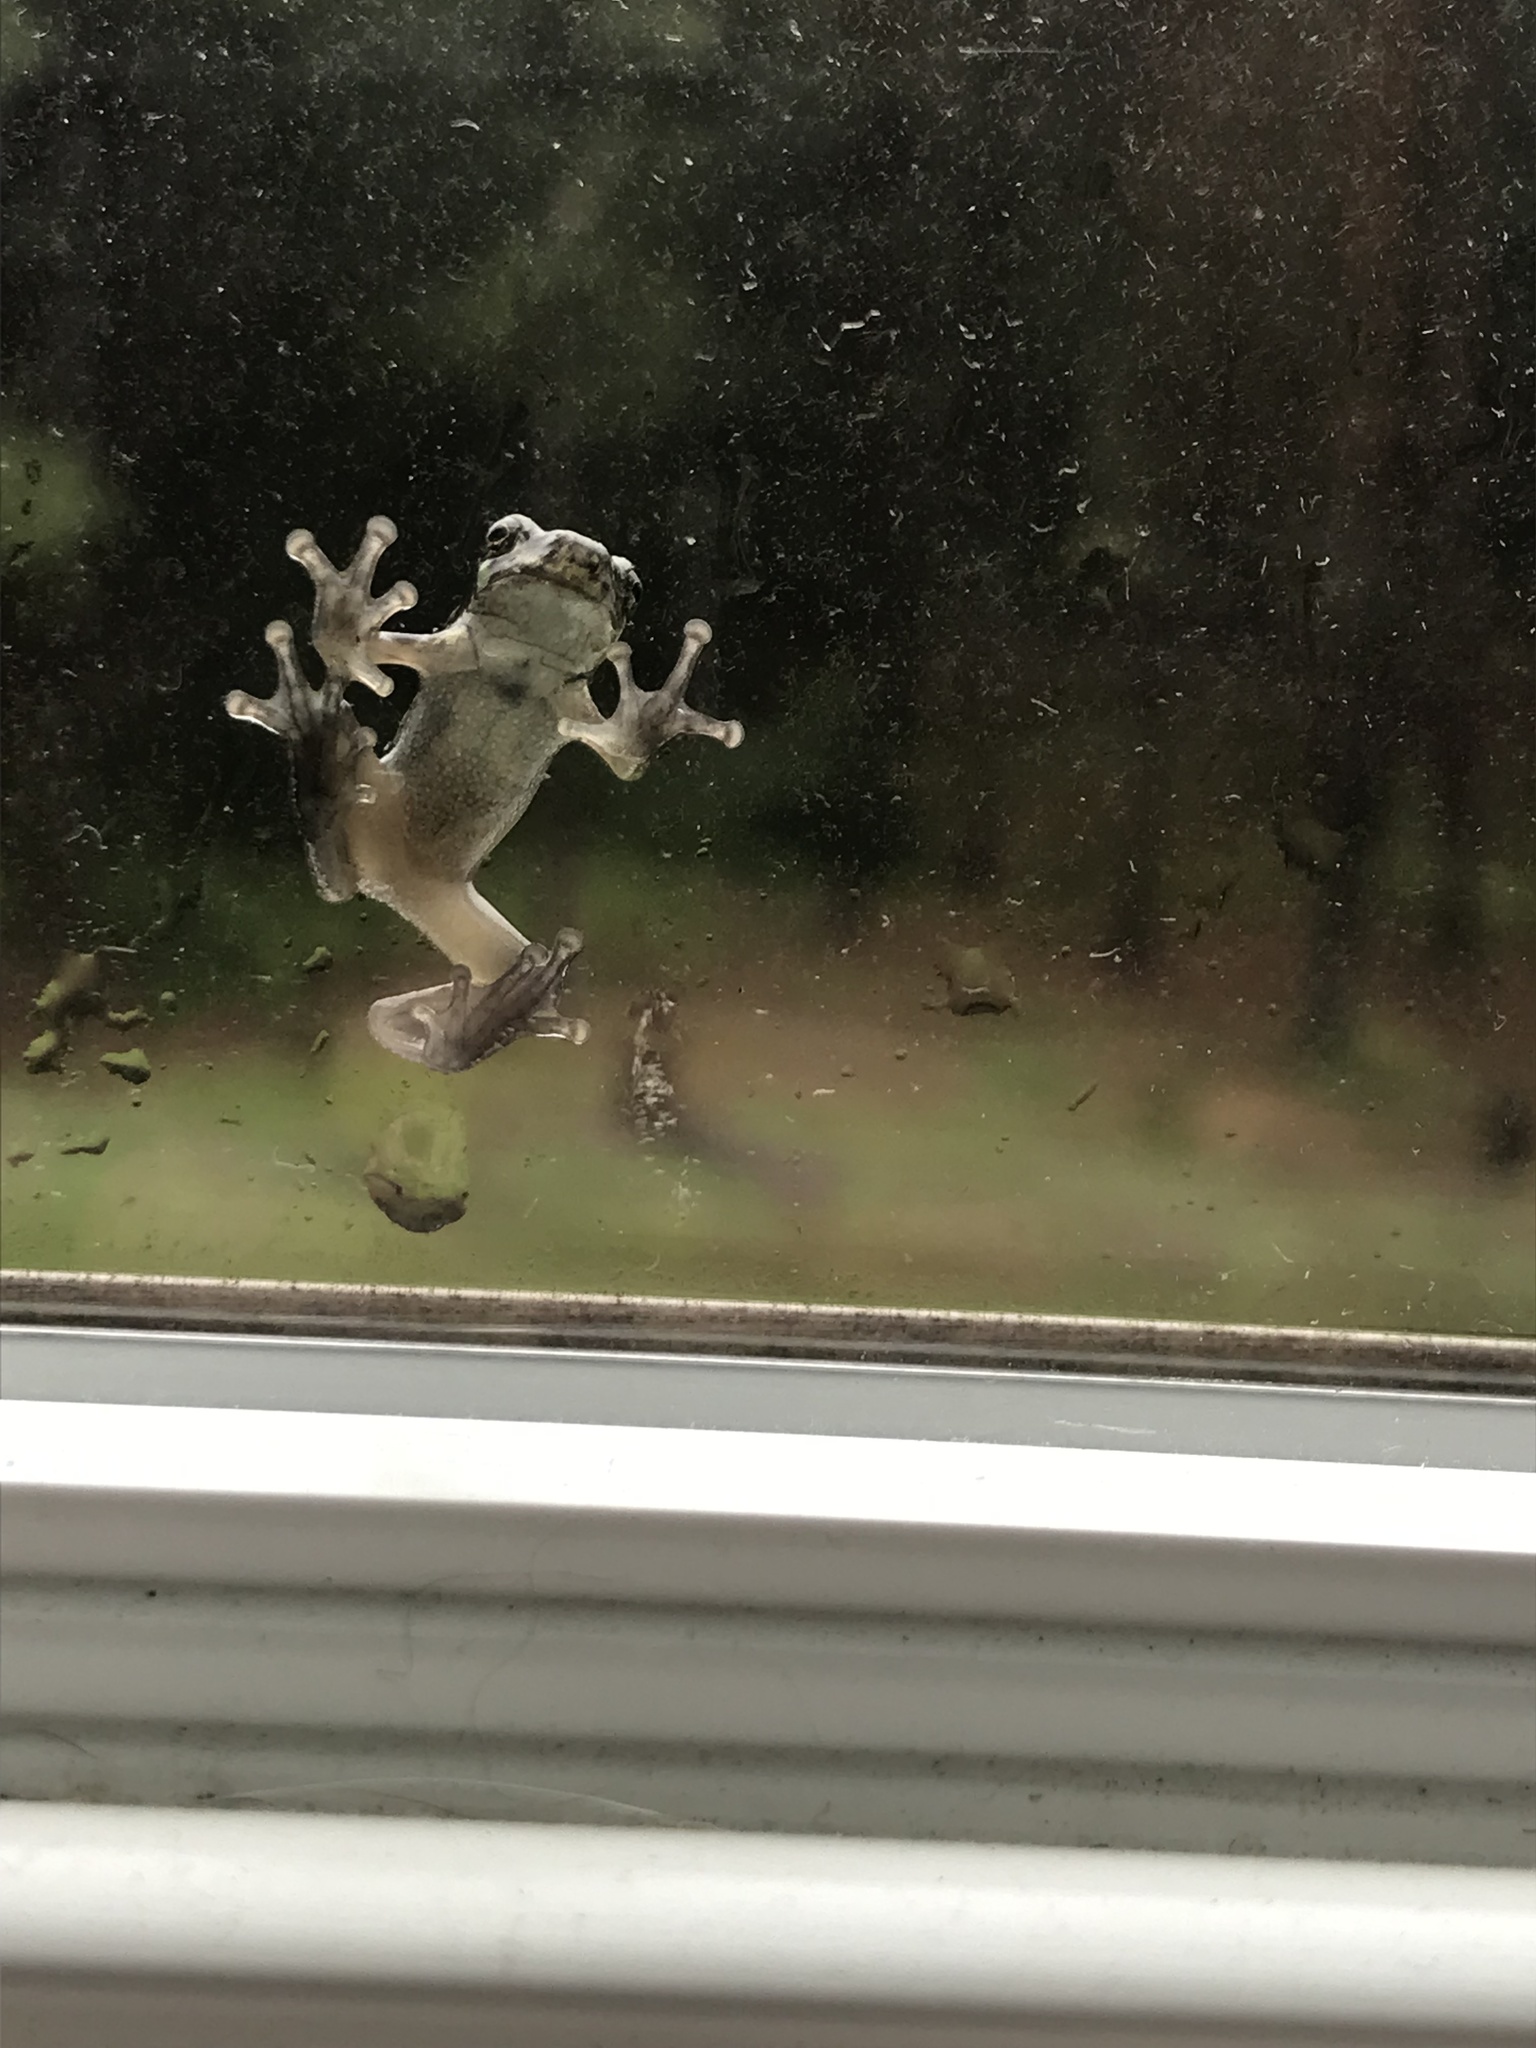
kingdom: Animalia
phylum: Chordata
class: Amphibia
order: Anura
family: Hylidae
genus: Dryophytes
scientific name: Dryophytes versicolor
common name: Gray treefrog
